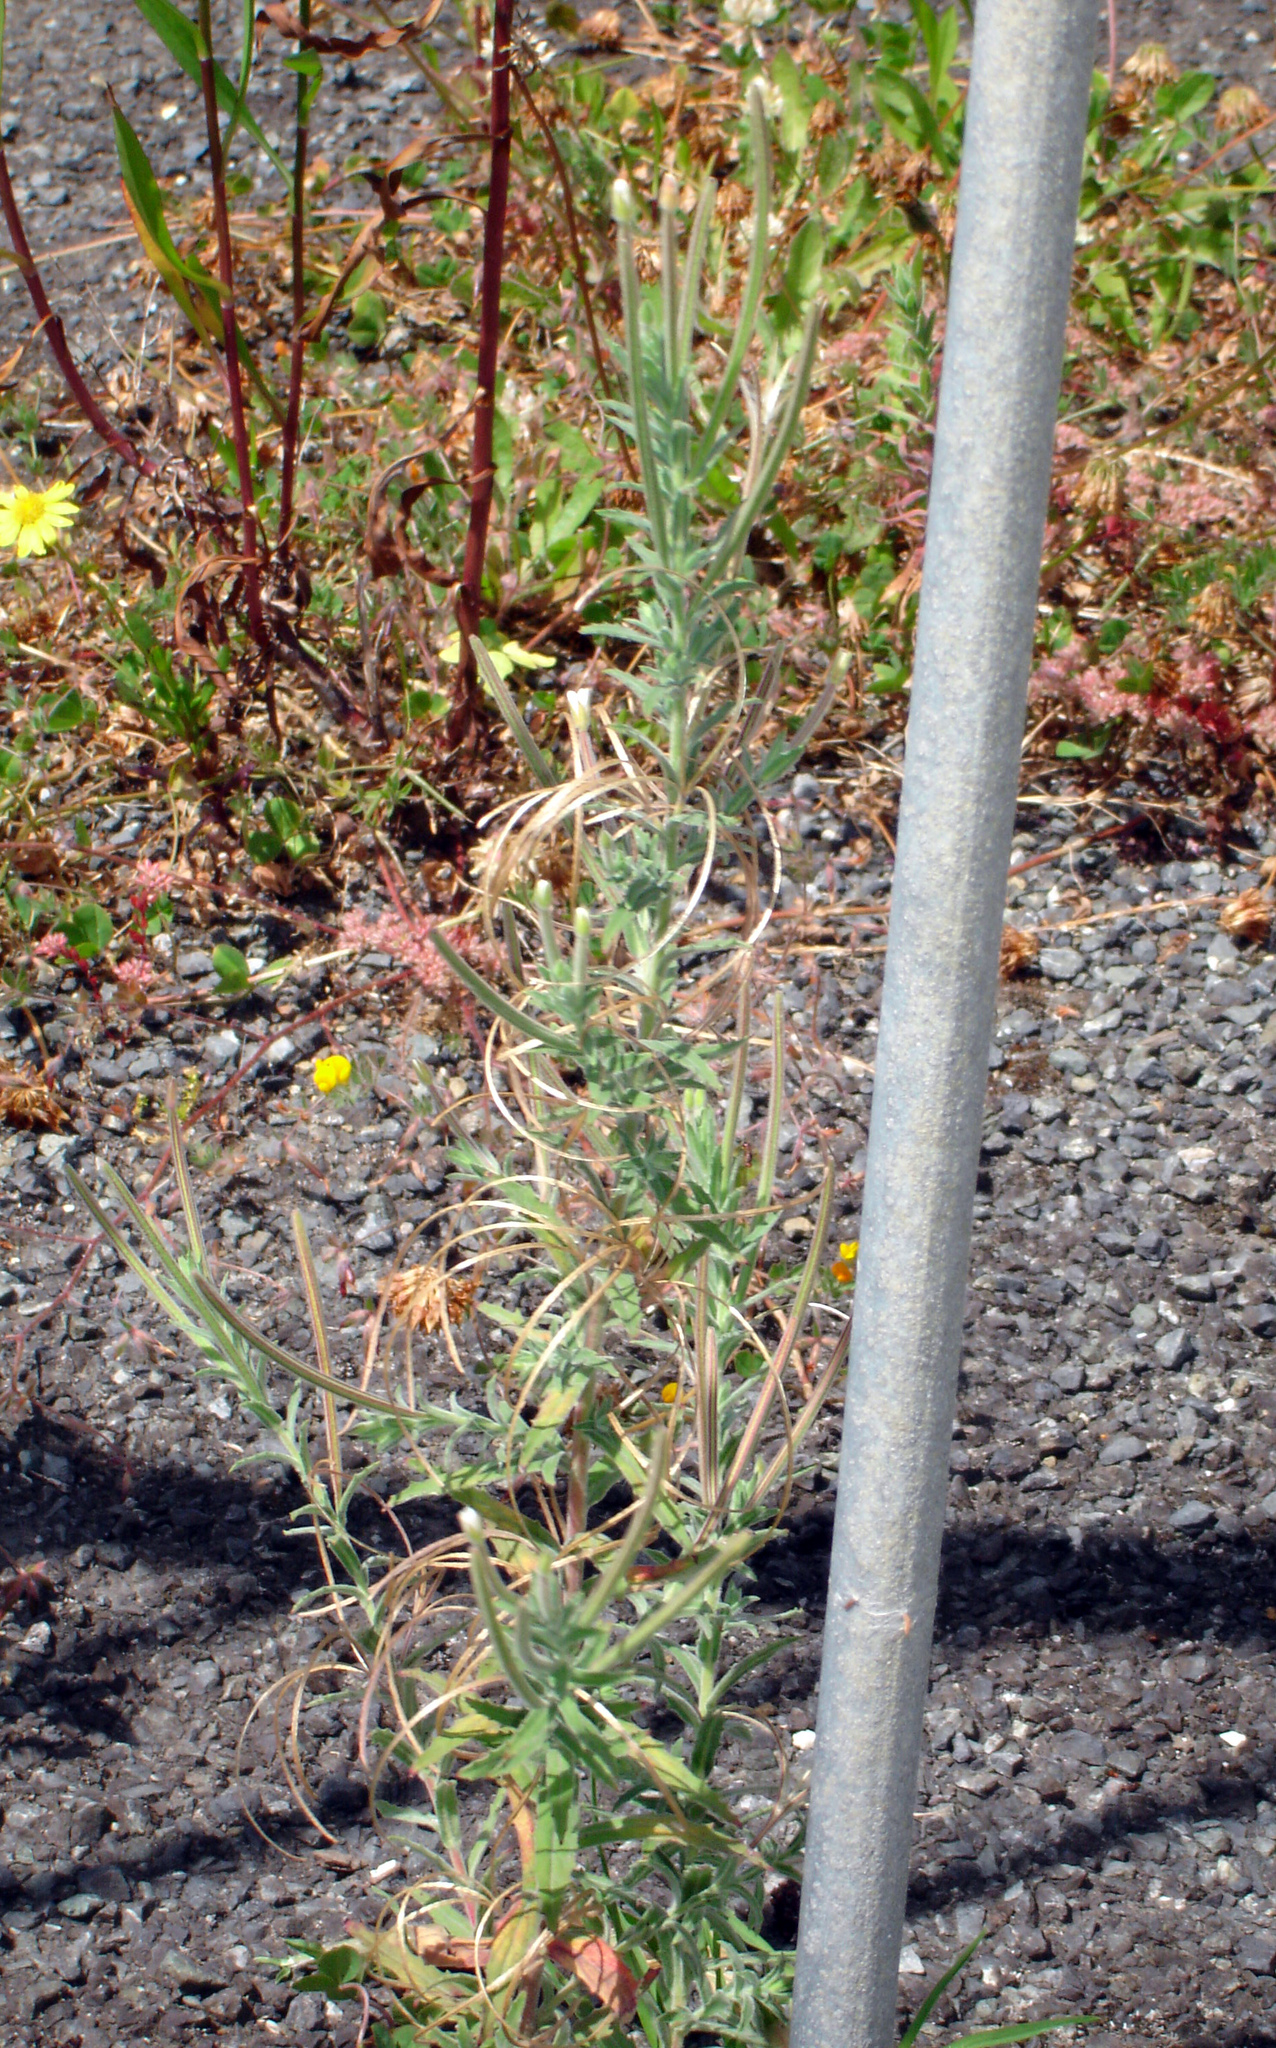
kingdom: Plantae
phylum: Tracheophyta
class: Magnoliopsida
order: Myrtales
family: Onagraceae
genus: Epilobium
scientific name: Epilobium hirtigerum
